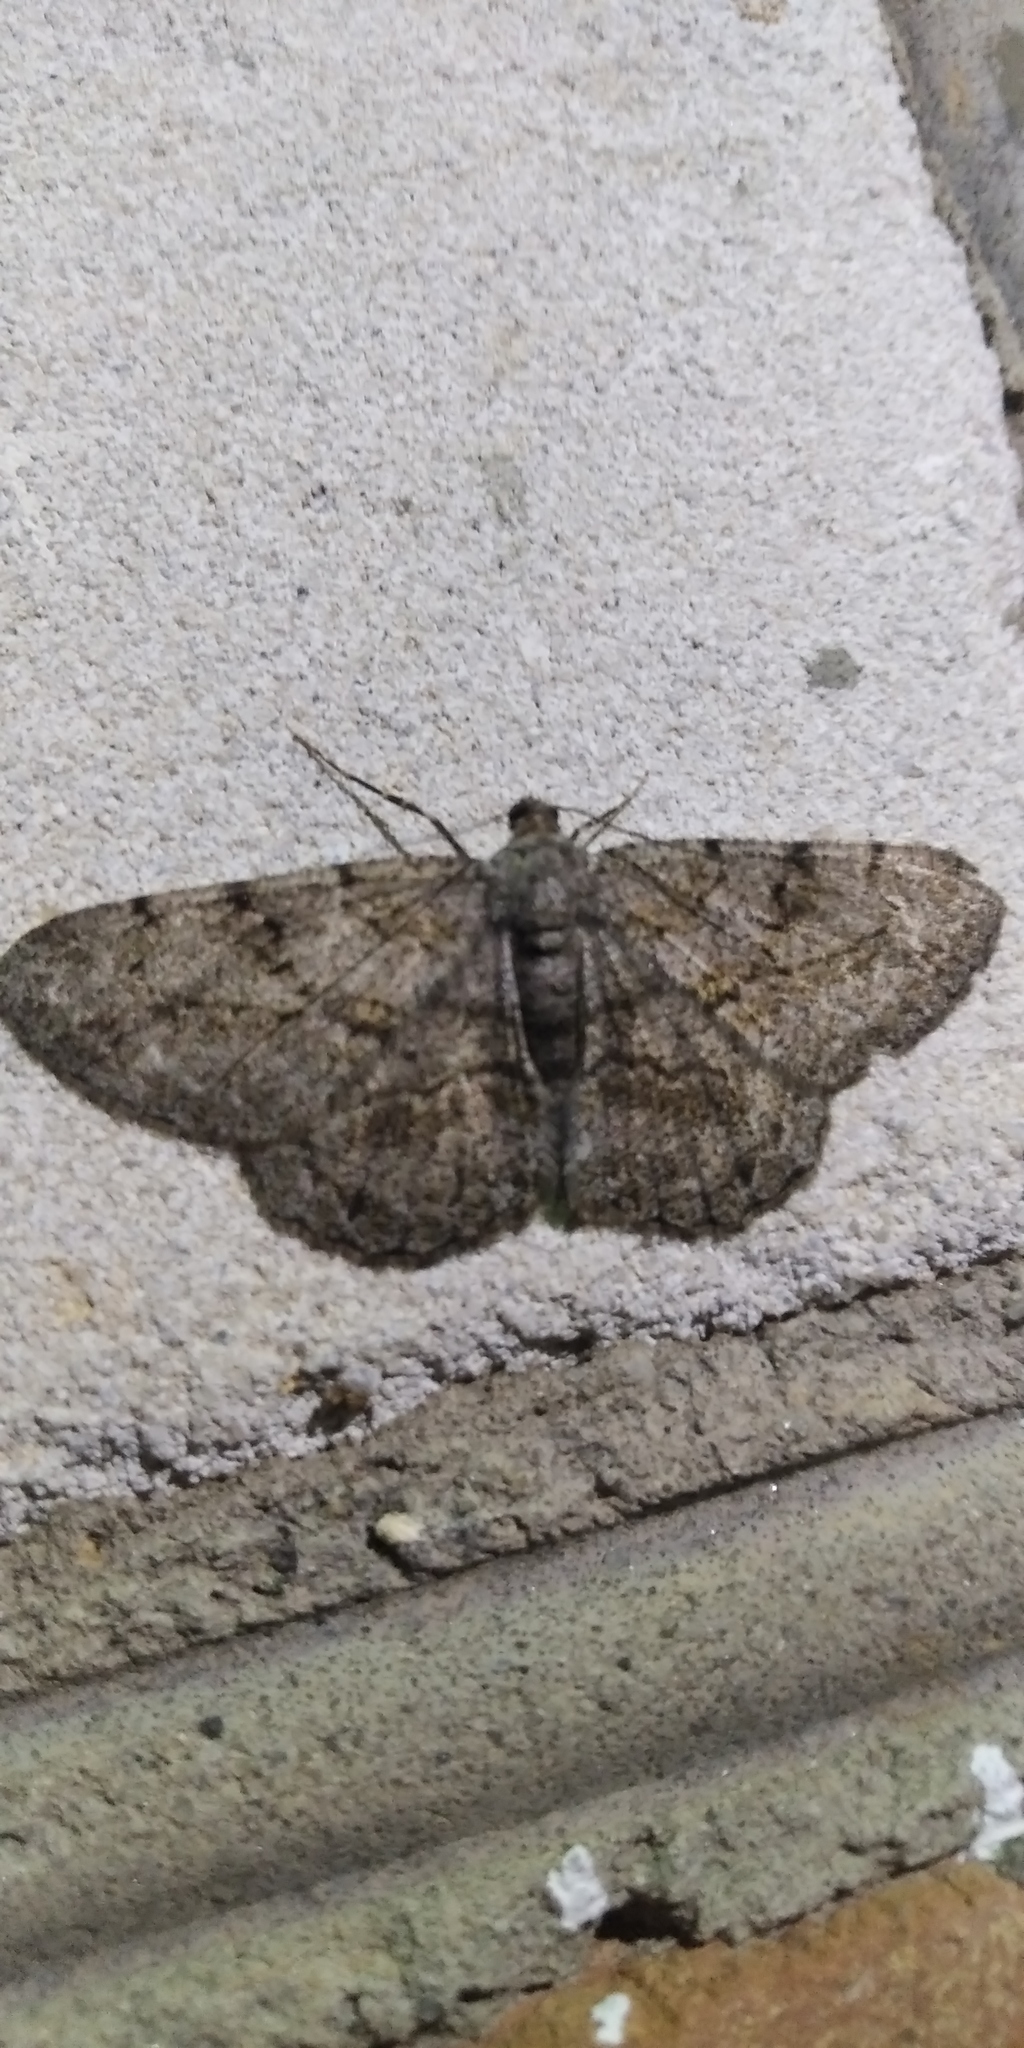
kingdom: Animalia
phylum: Arthropoda
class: Insecta
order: Lepidoptera
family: Geometridae
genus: Peribatodes
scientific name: Peribatodes rhomboidaria
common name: Willow beauty
